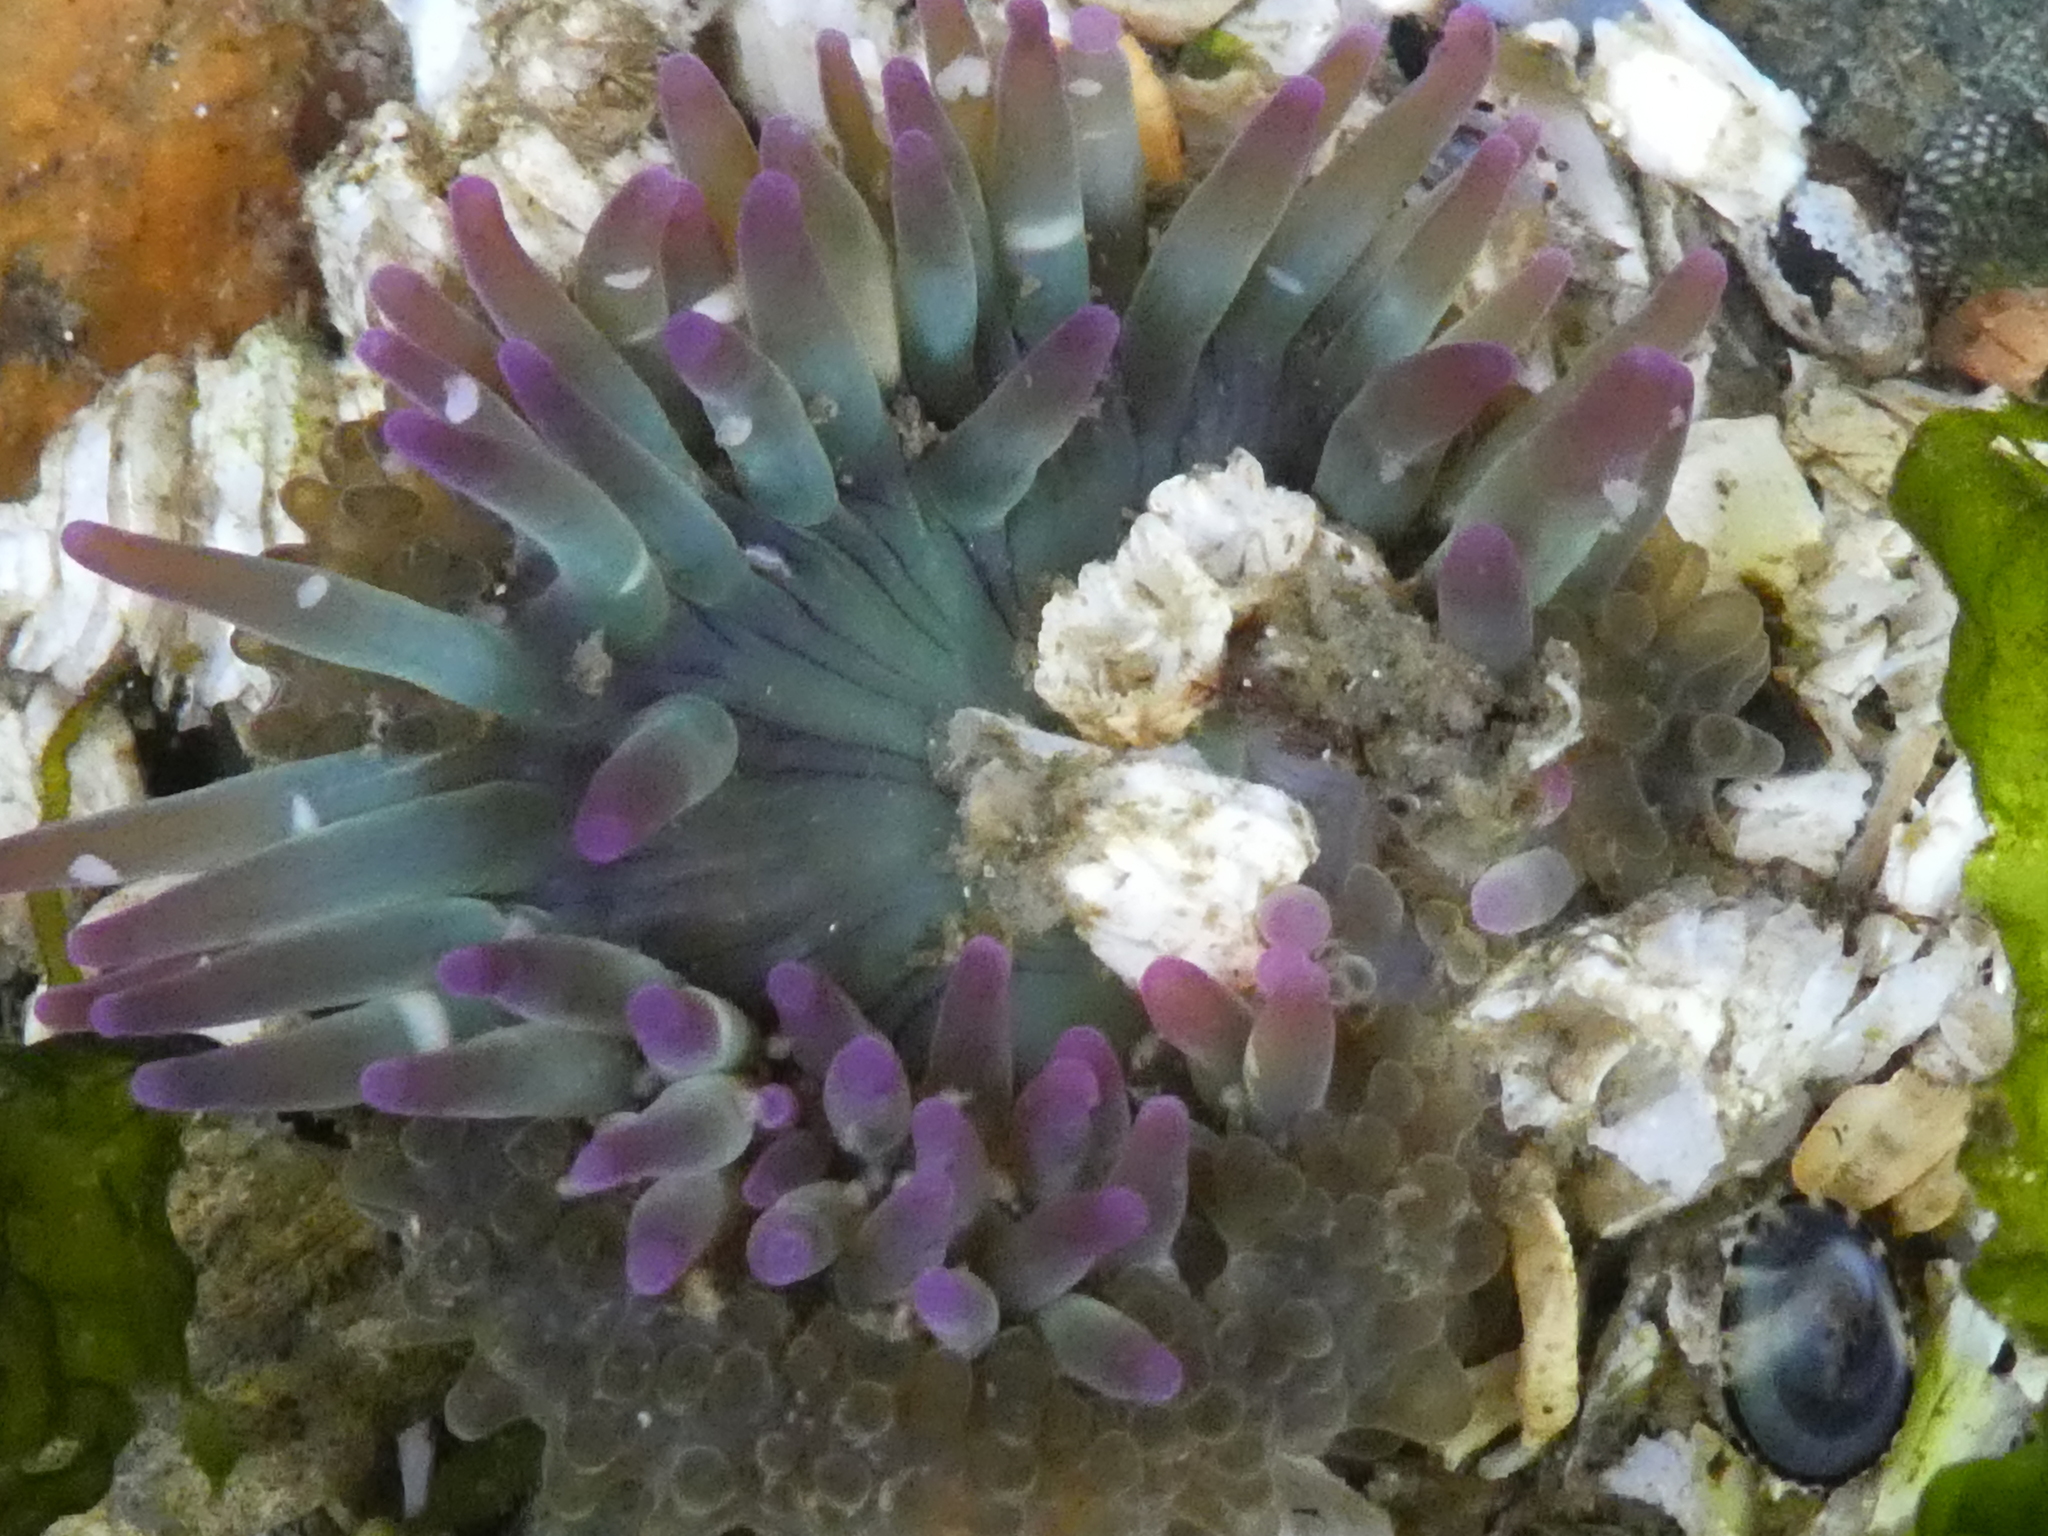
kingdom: Animalia
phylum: Cnidaria
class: Anthozoa
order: Actiniaria
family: Actiniidae
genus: Anthopleura
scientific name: Anthopleura elegantissima
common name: Clonal anemone
